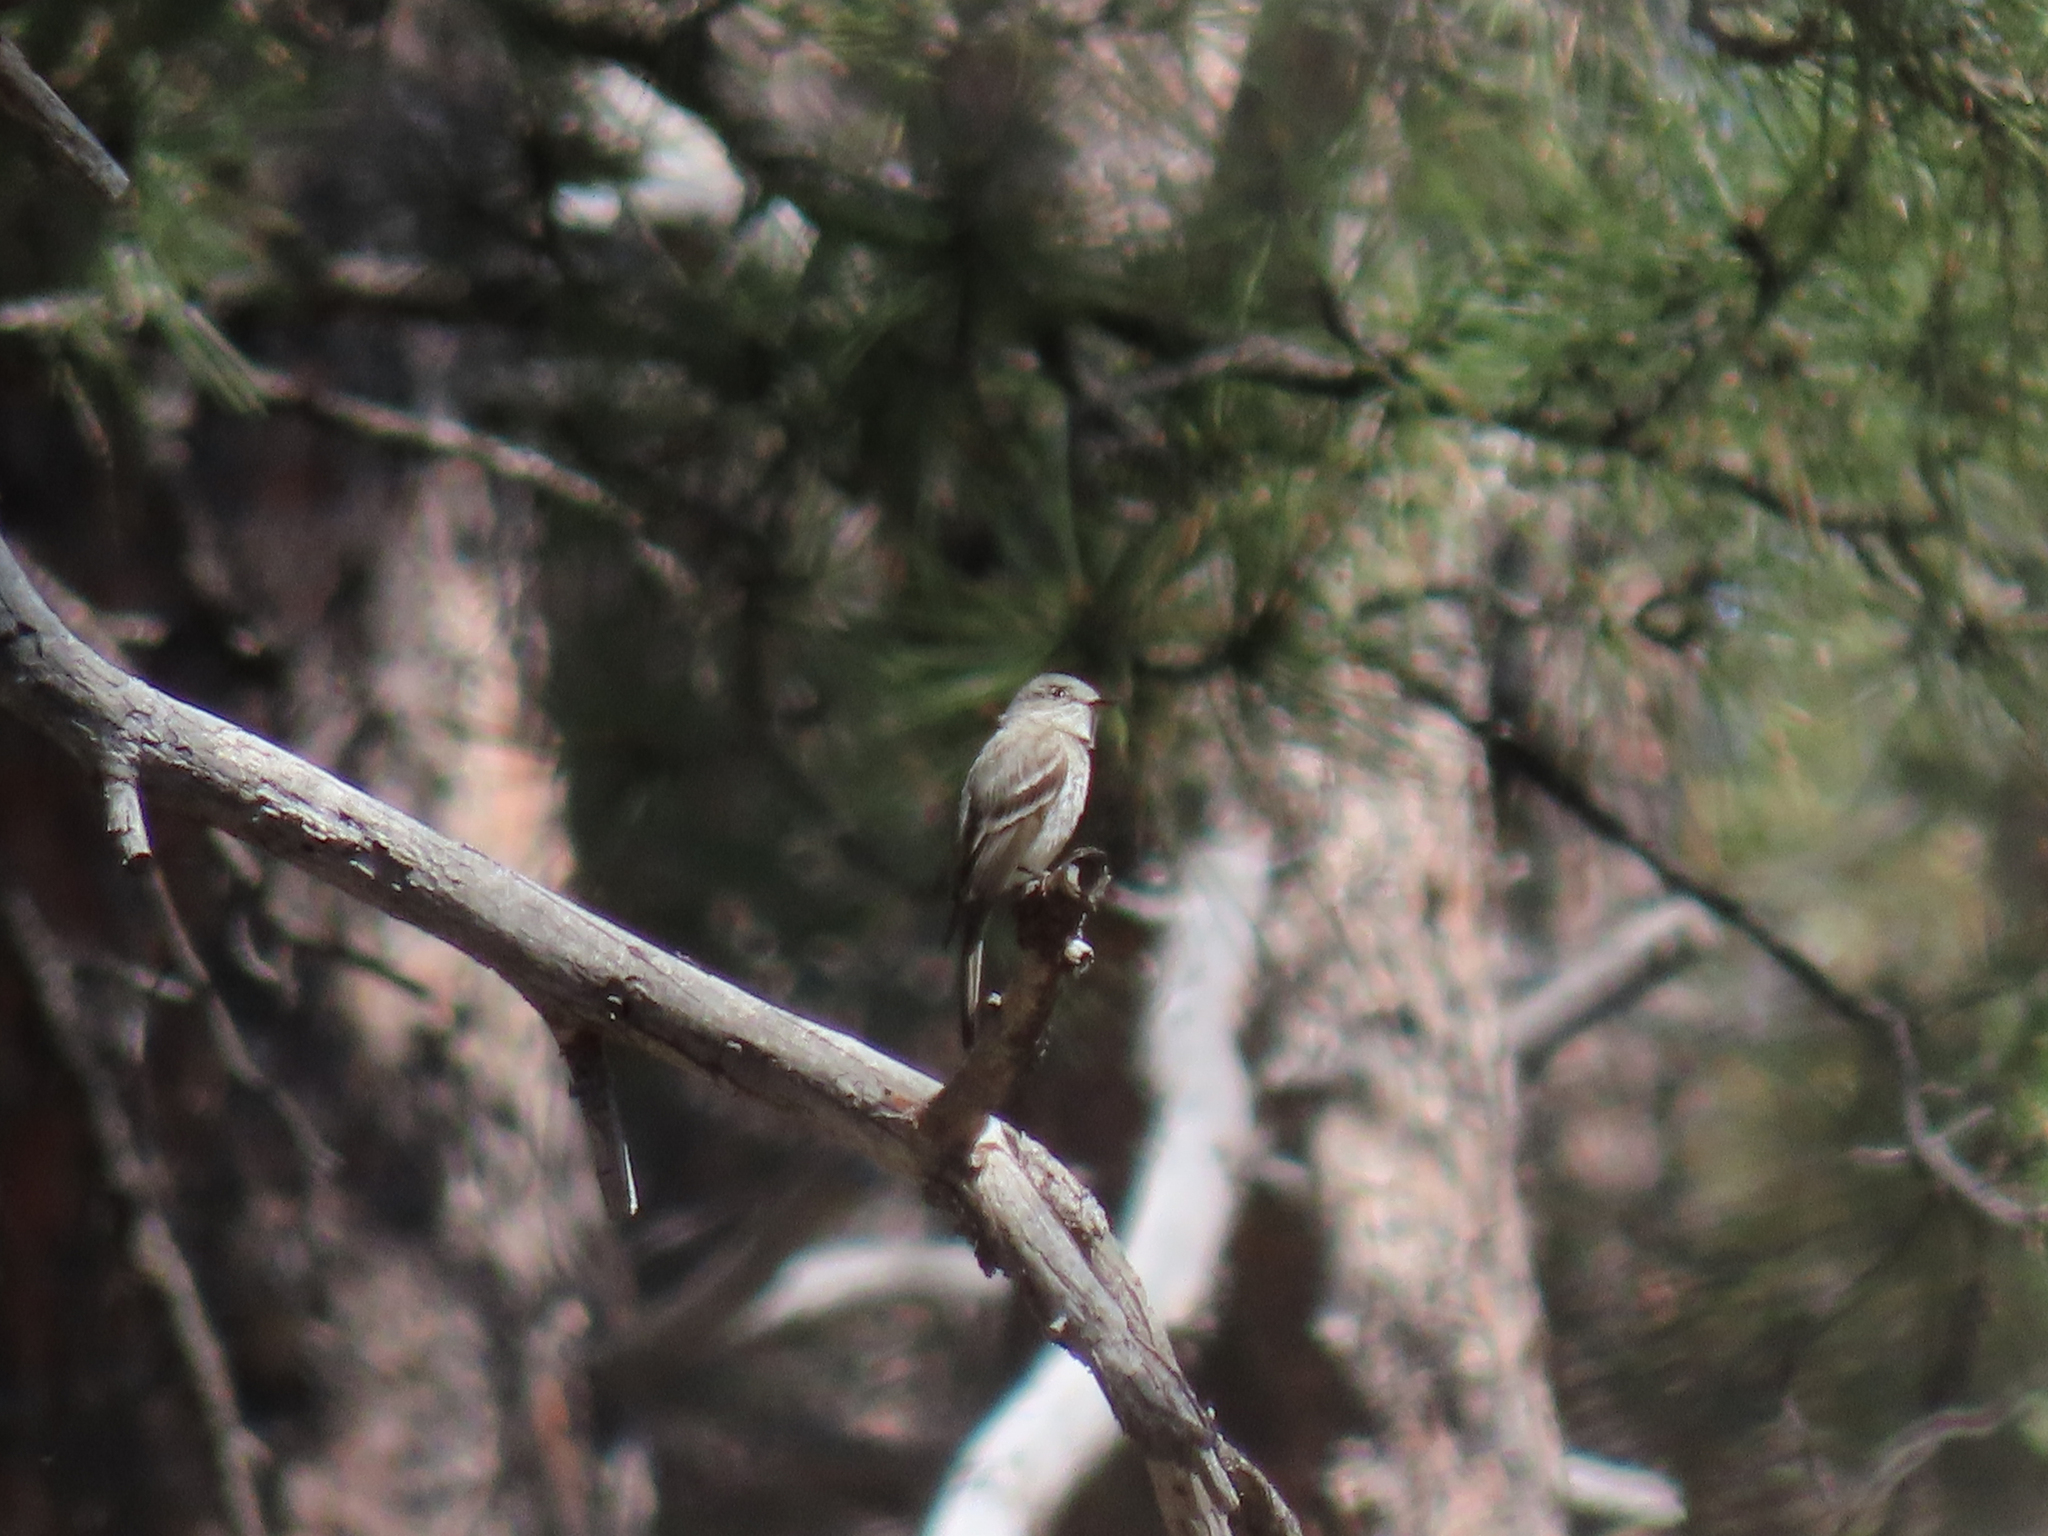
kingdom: Animalia
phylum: Chordata
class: Aves
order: Passeriformes
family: Tyrannidae
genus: Empidonax
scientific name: Empidonax wrightii
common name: Gray flycatcher
